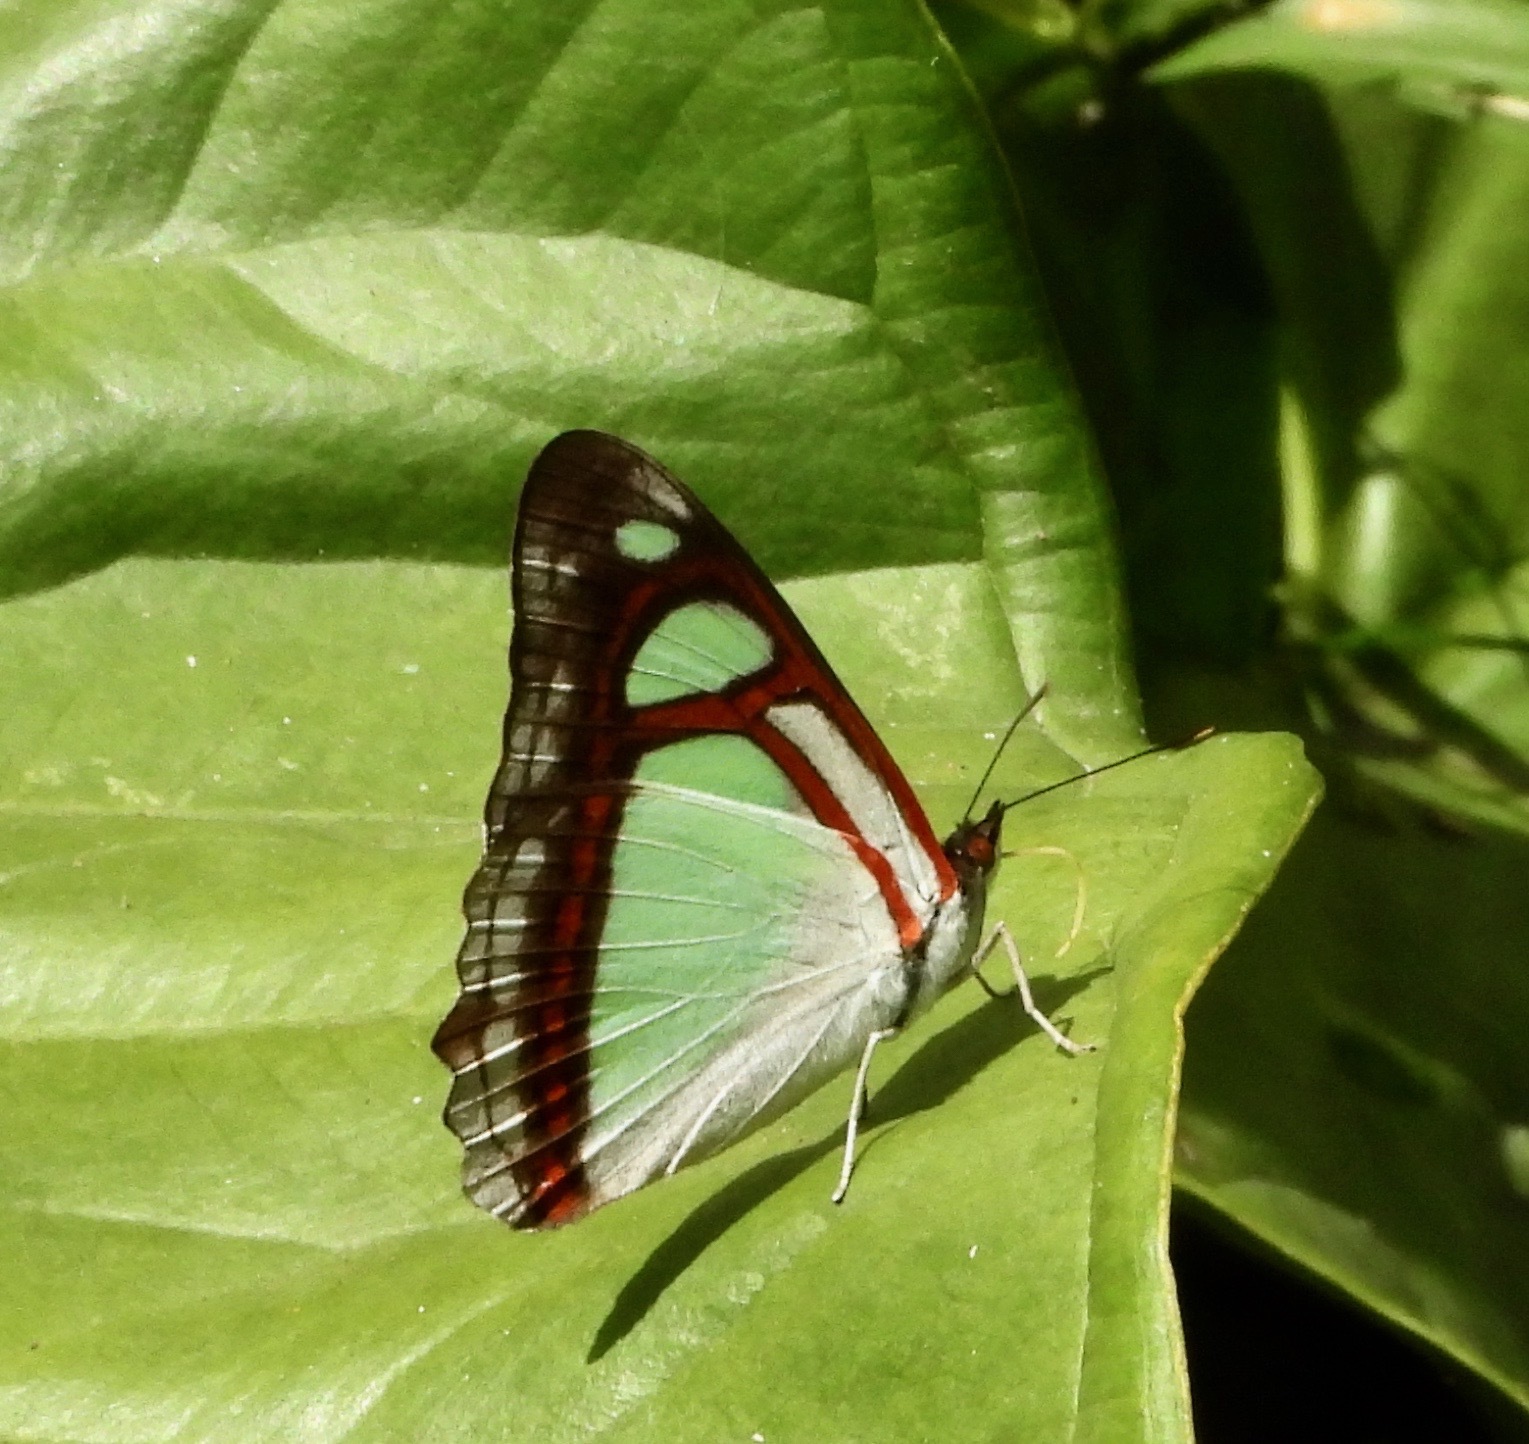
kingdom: Animalia
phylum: Arthropoda
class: Insecta
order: Lepidoptera
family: Nymphalidae
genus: Pyrrhogyra
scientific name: Pyrrhogyra edocla
